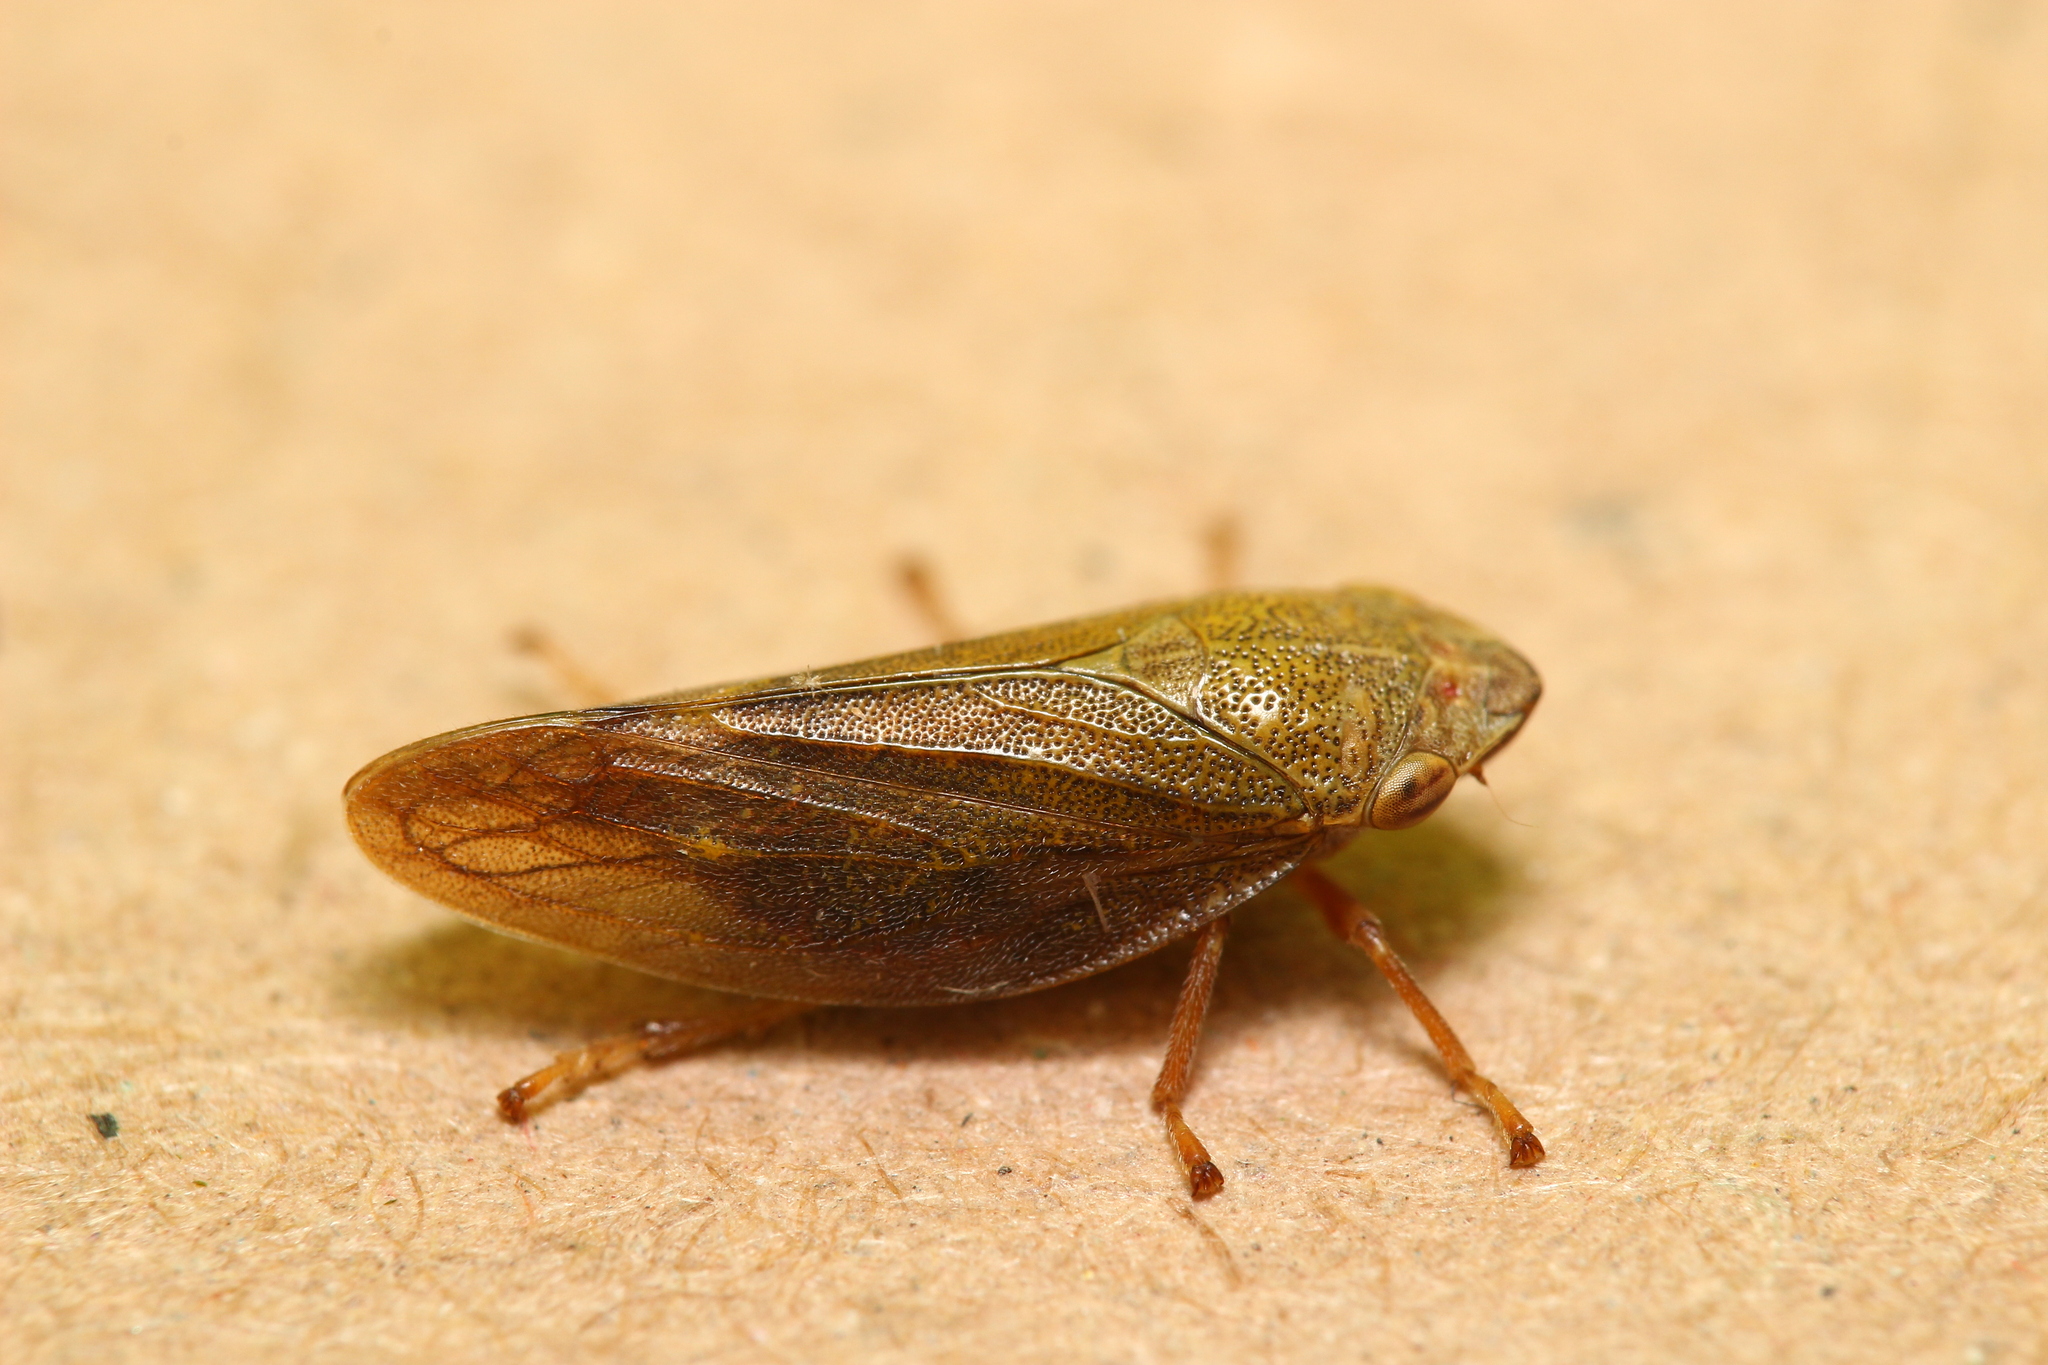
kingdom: Animalia
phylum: Arthropoda
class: Insecta
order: Hemiptera
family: Aphrophoridae
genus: Aphrophora
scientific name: Aphrophora salicina
